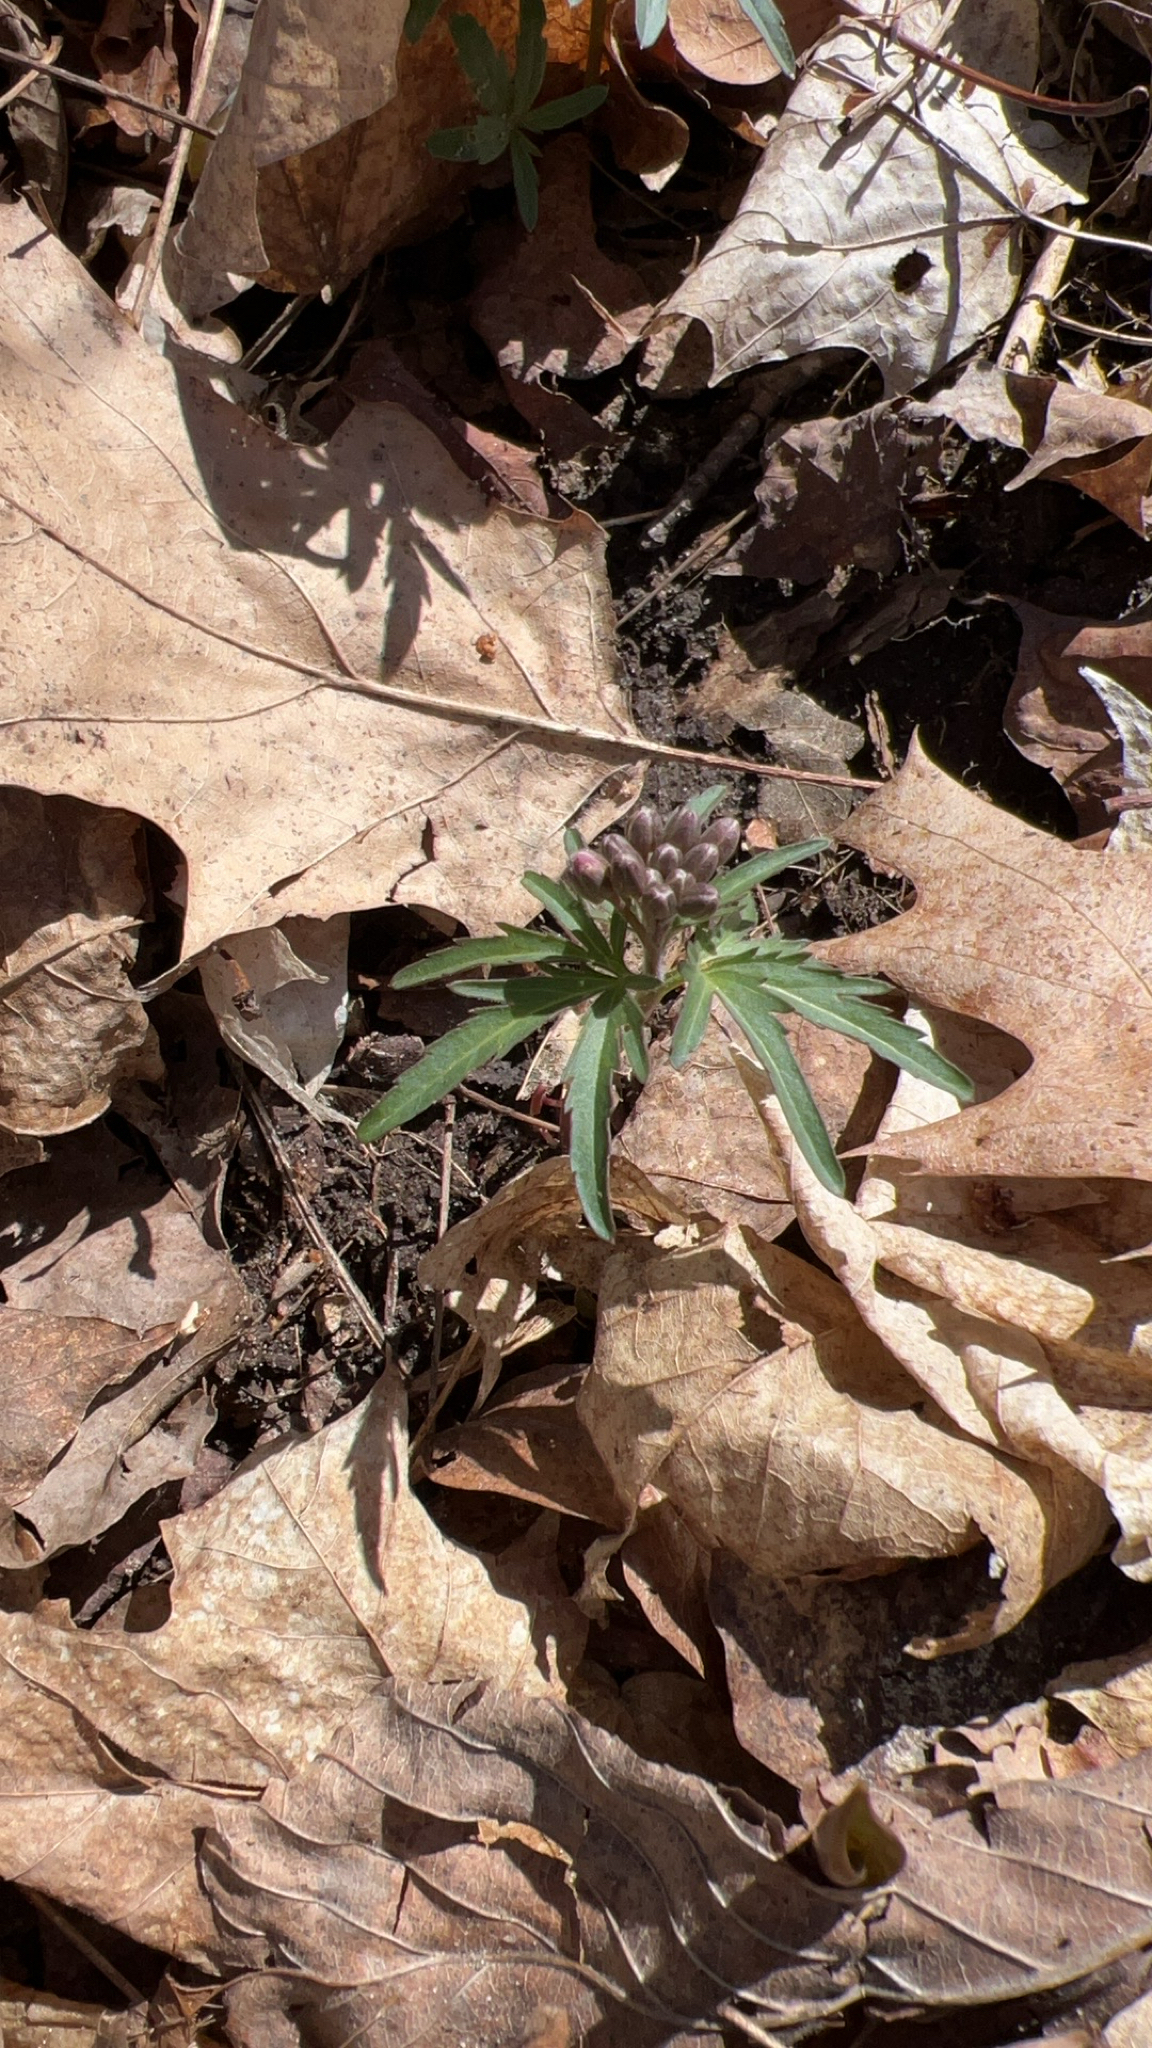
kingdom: Plantae
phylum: Tracheophyta
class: Magnoliopsida
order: Brassicales
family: Brassicaceae
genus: Cardamine
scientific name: Cardamine concatenata
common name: Cut-leaf toothcup
